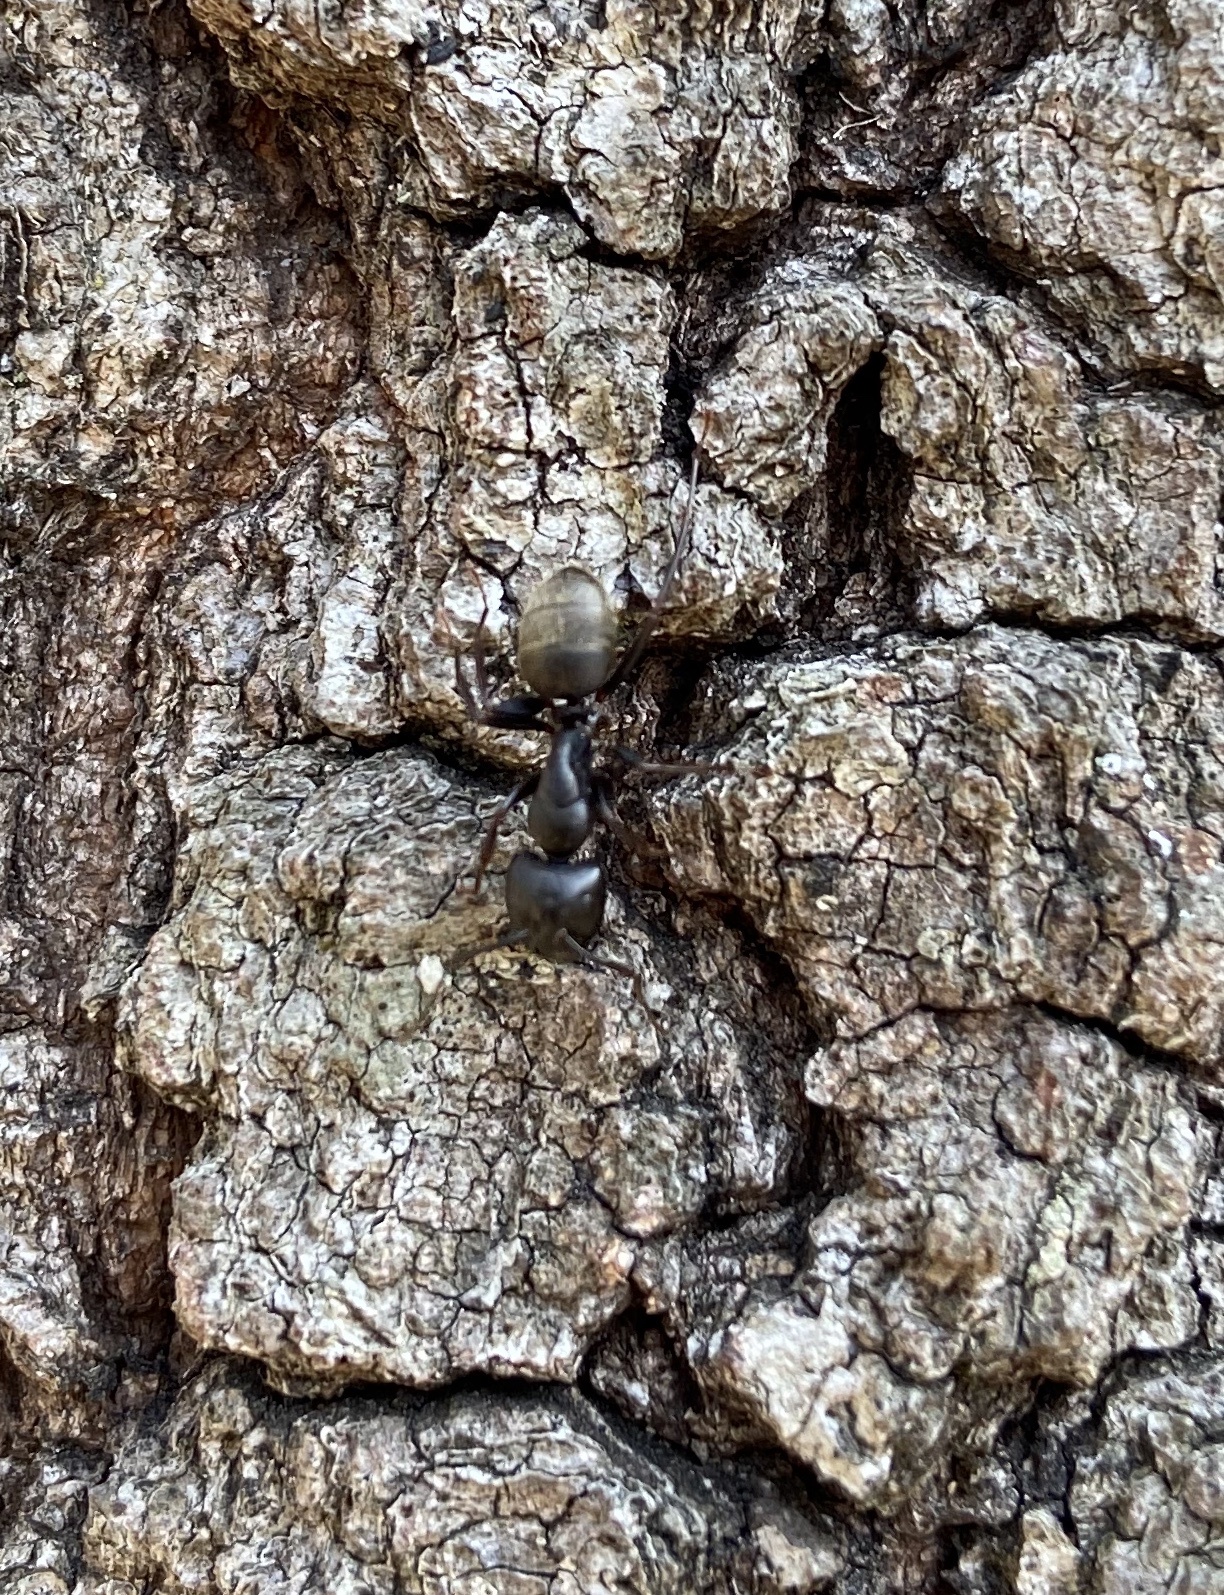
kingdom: Animalia
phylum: Arthropoda
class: Insecta
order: Hymenoptera
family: Formicidae
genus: Camponotus
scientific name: Camponotus pennsylvanicus
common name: Black carpenter ant
